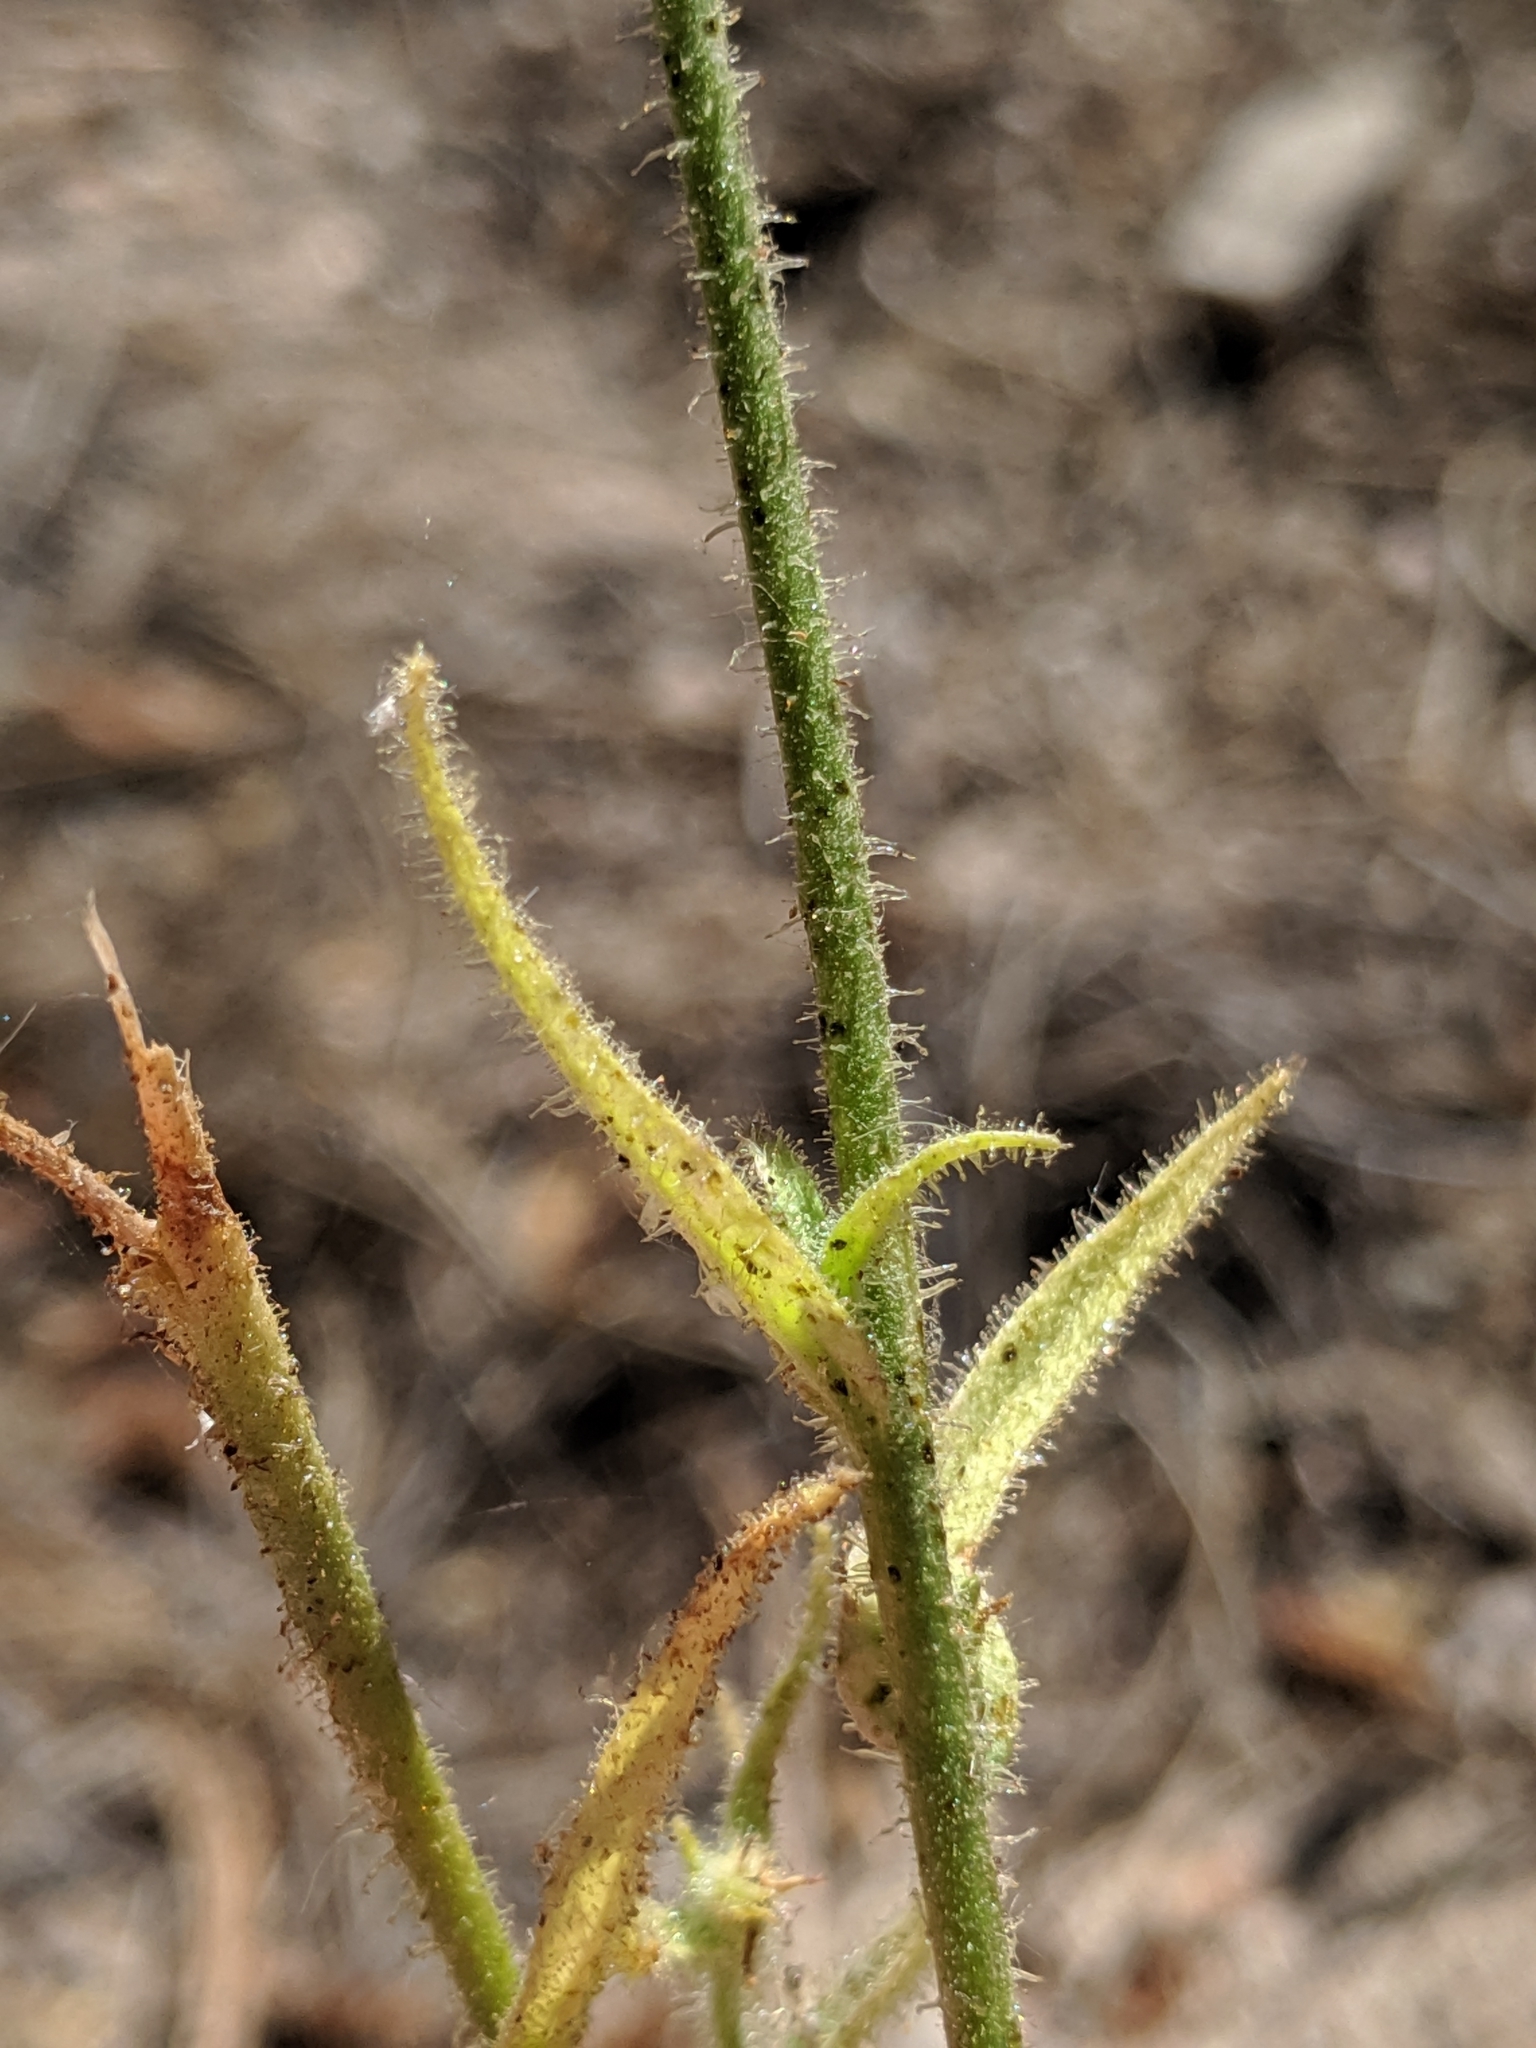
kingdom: Plantae
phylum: Tracheophyta
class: Magnoliopsida
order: Solanales
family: Solanaceae
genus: Nicotiana
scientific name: Nicotiana quadrivalvis
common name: Indian tobacco
